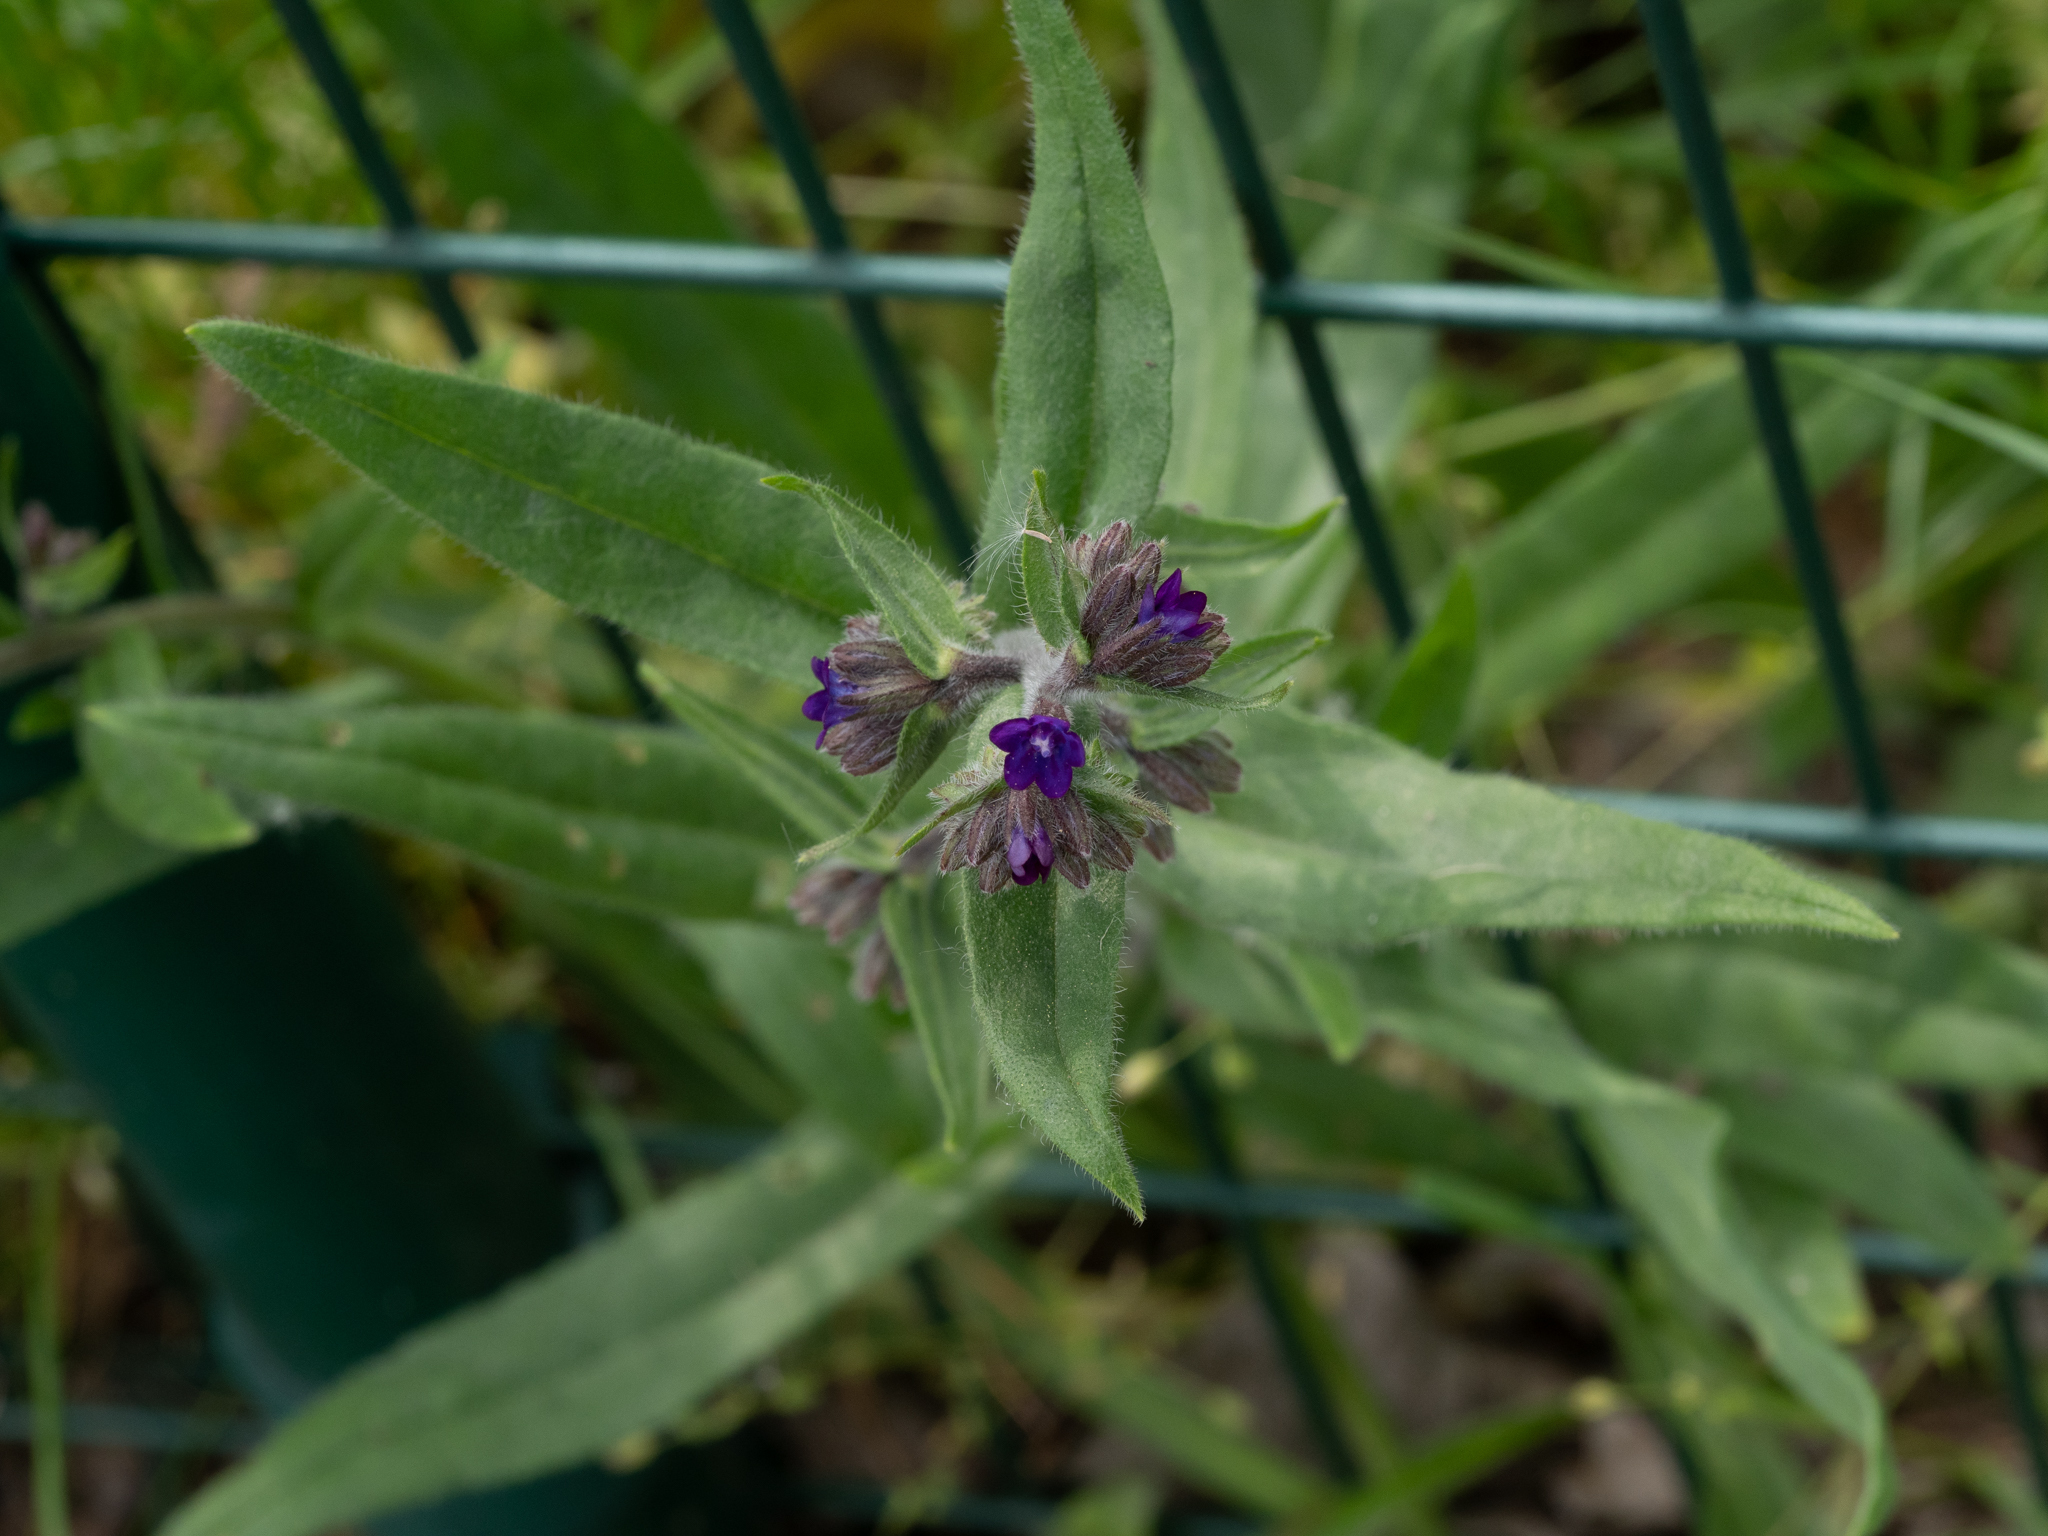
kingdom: Plantae
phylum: Tracheophyta
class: Magnoliopsida
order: Boraginales
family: Boraginaceae
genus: Anchusa
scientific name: Anchusa officinalis
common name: Alkanet
